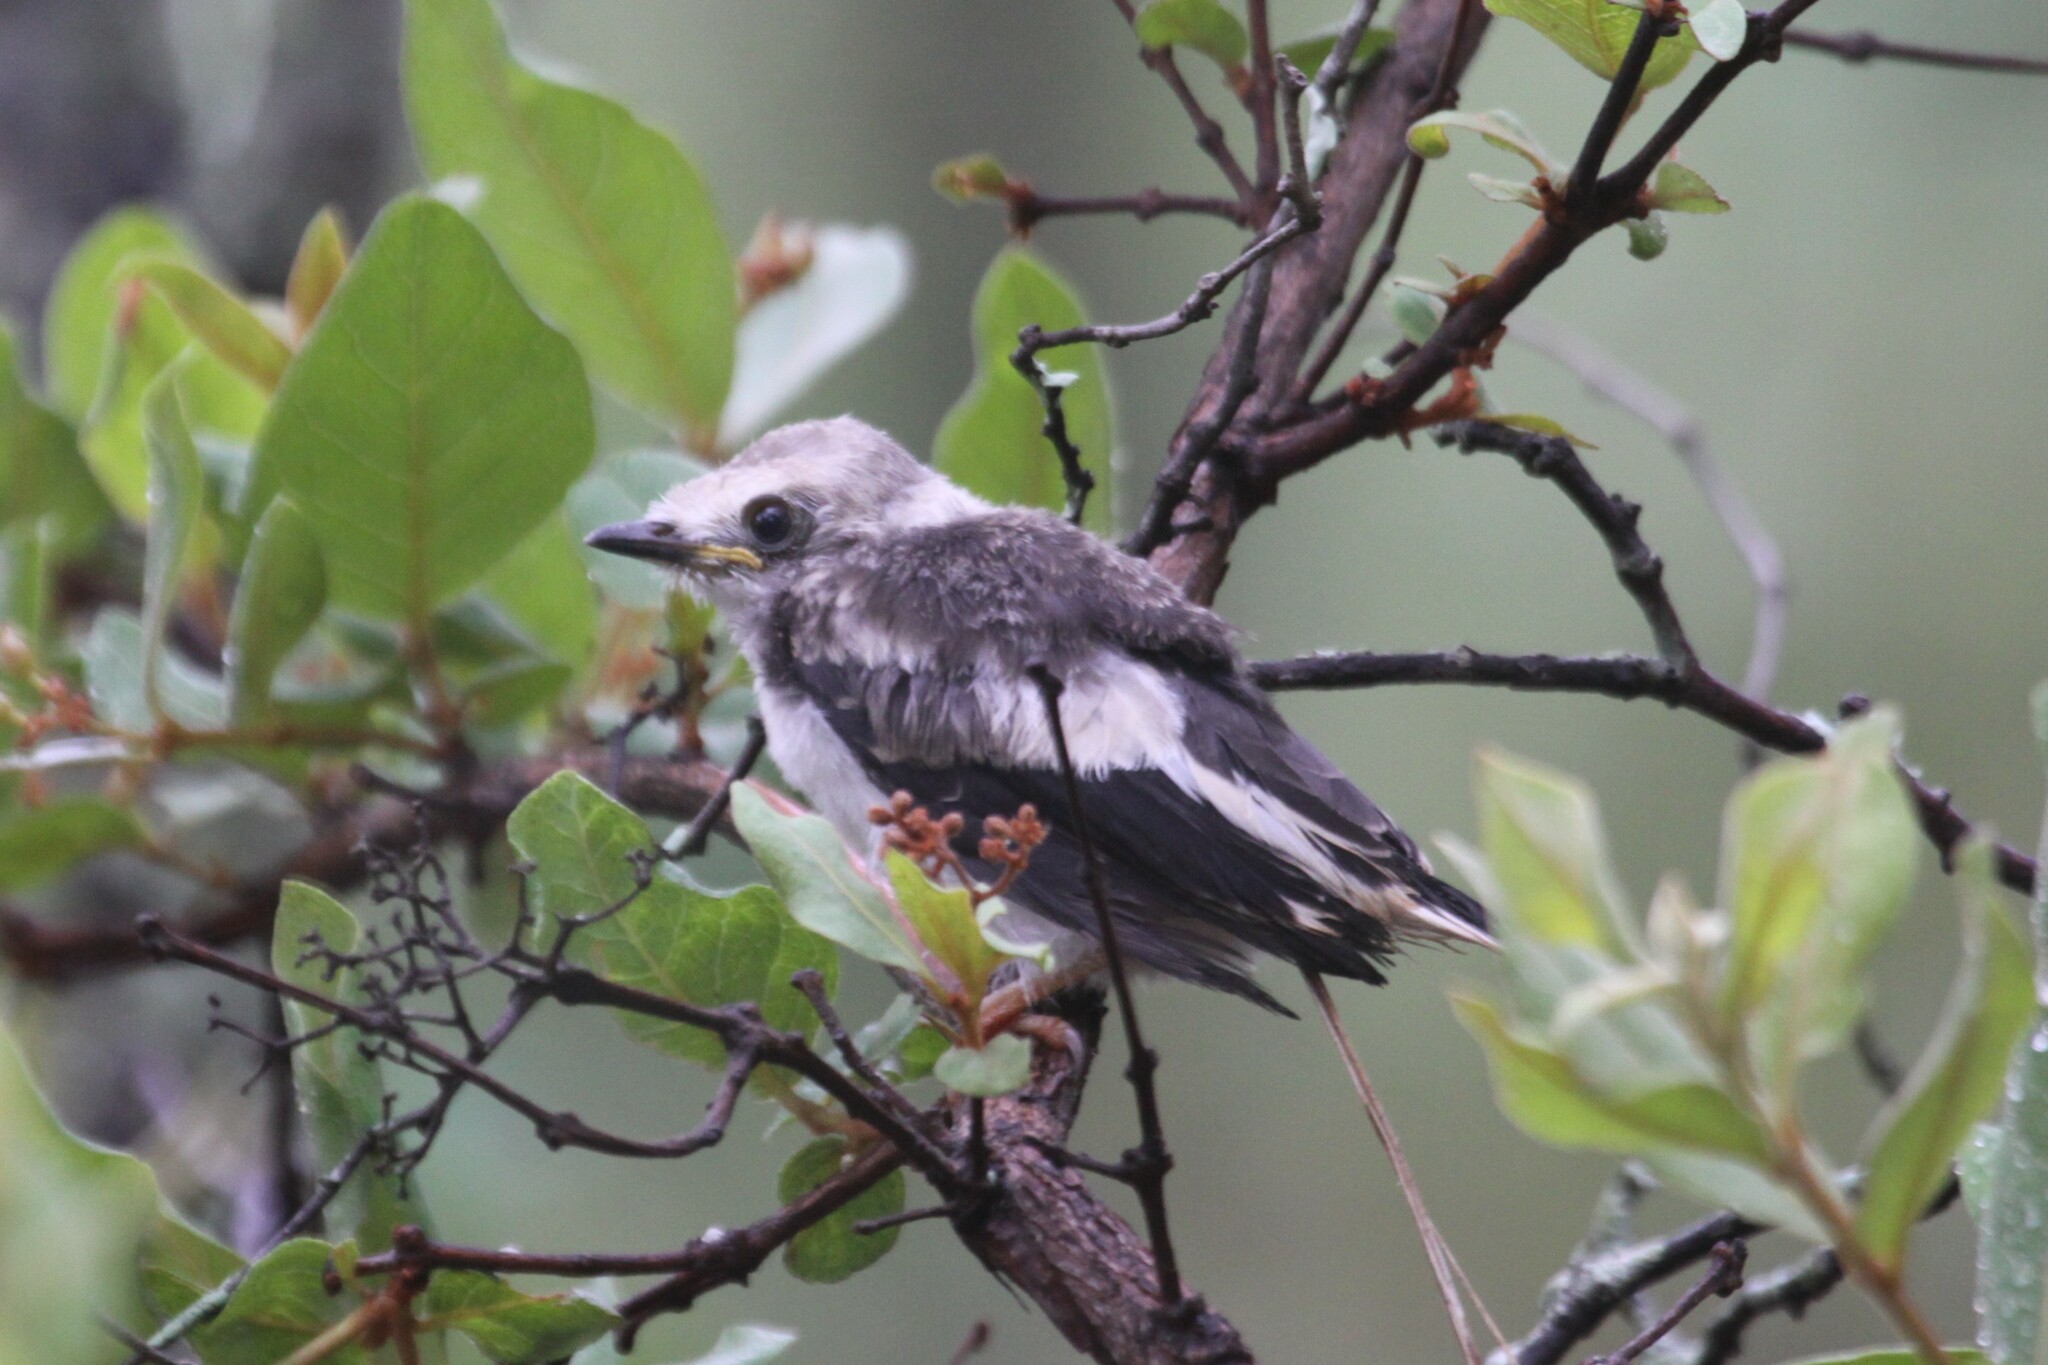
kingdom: Animalia
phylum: Chordata
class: Aves
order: Passeriformes
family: Prionopidae
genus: Prionops
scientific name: Prionops plumatus
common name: White-crested helmetshrike
